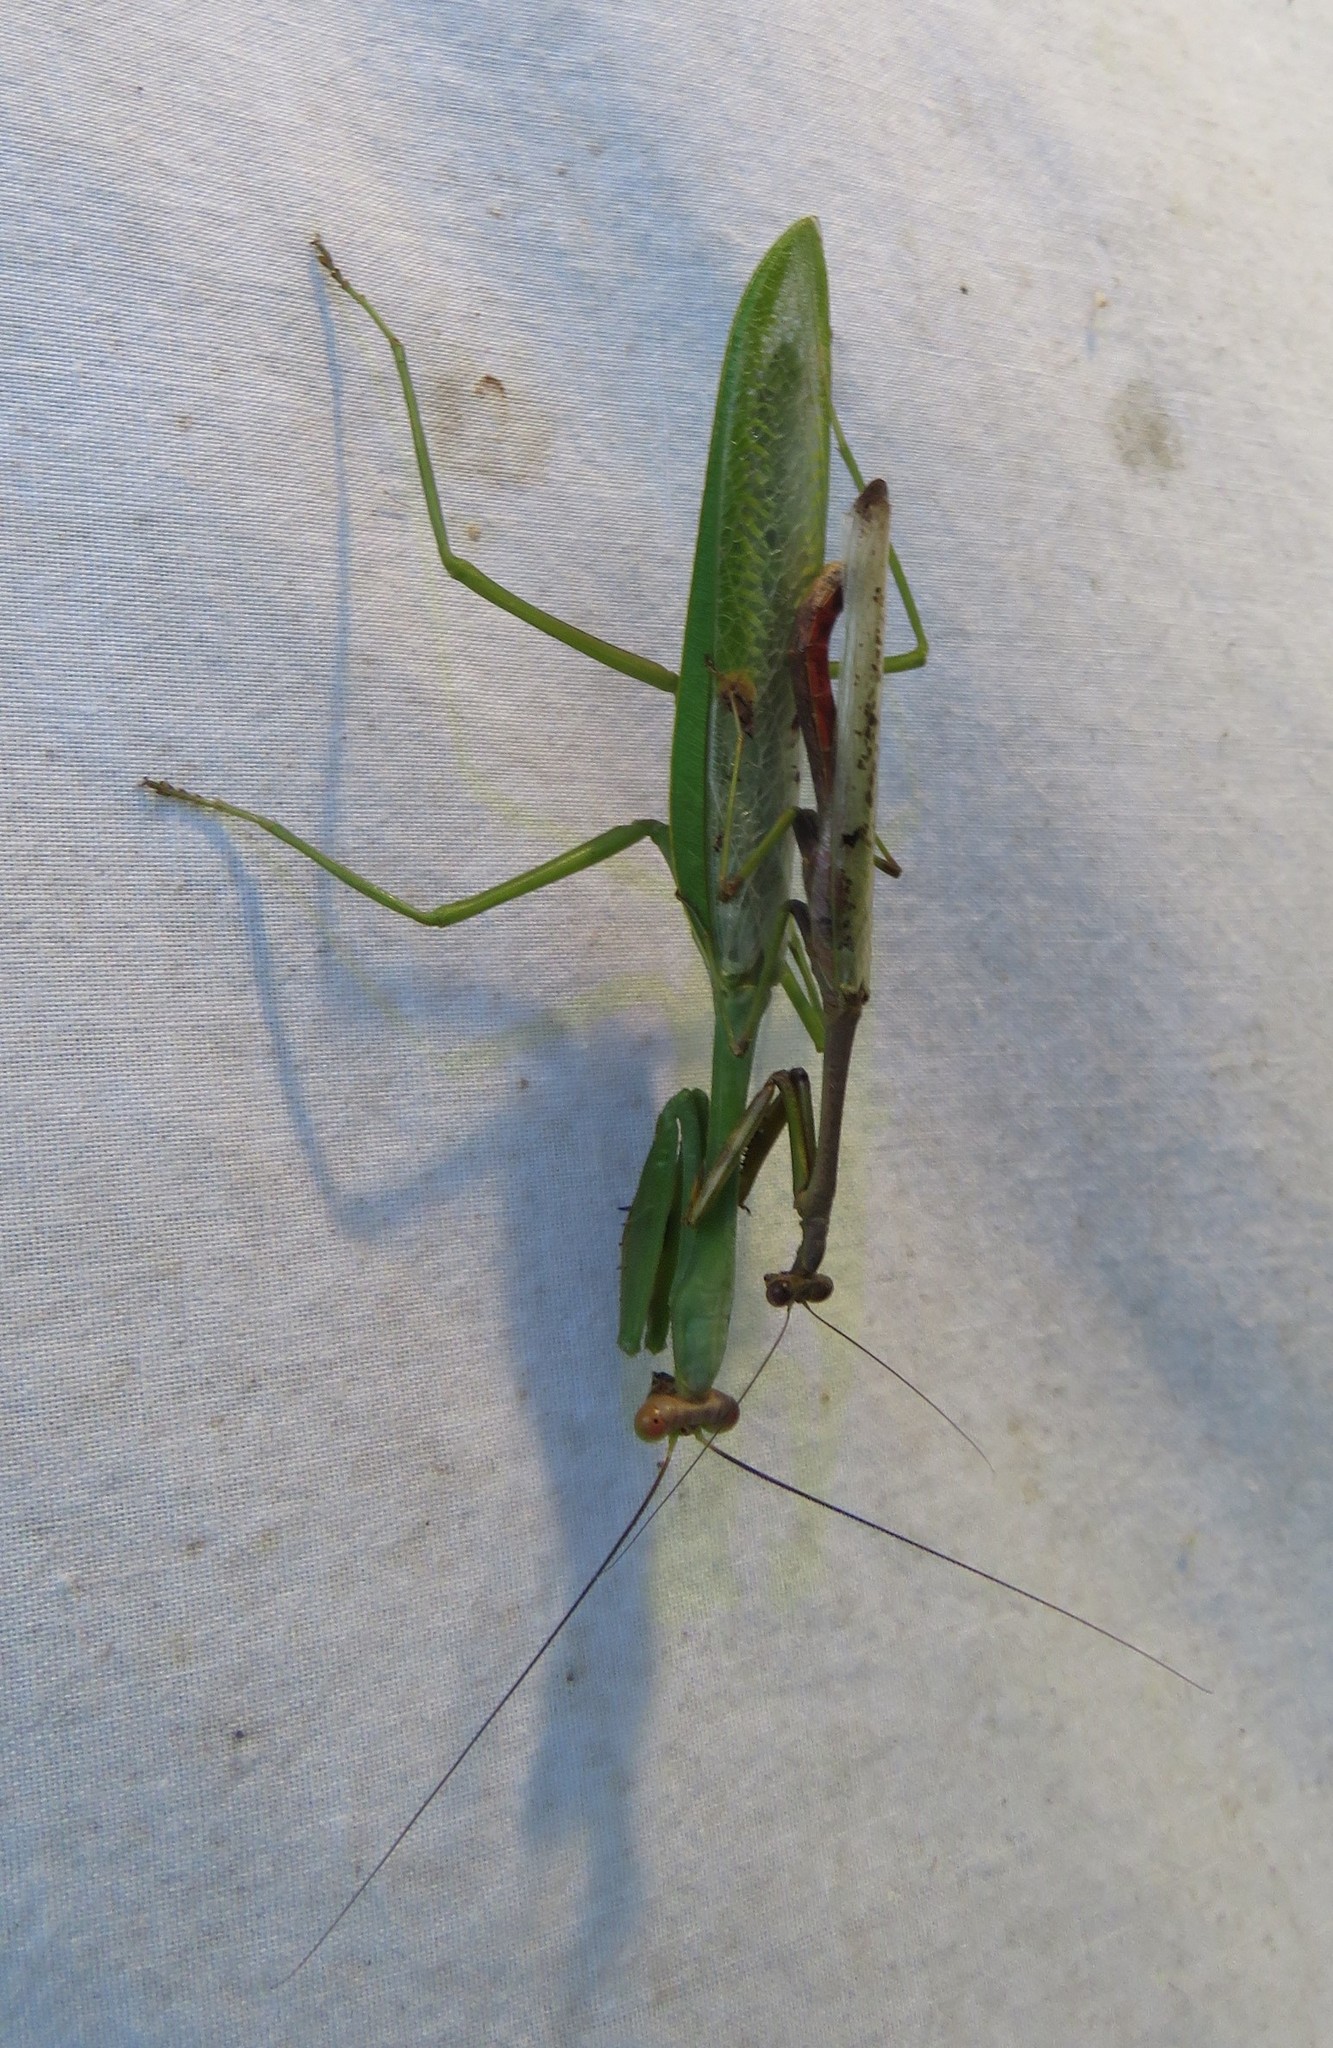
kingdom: Animalia
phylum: Arthropoda
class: Insecta
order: Mantodea
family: Mantidae
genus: Stagmatoptera
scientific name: Stagmatoptera septentrionalis
